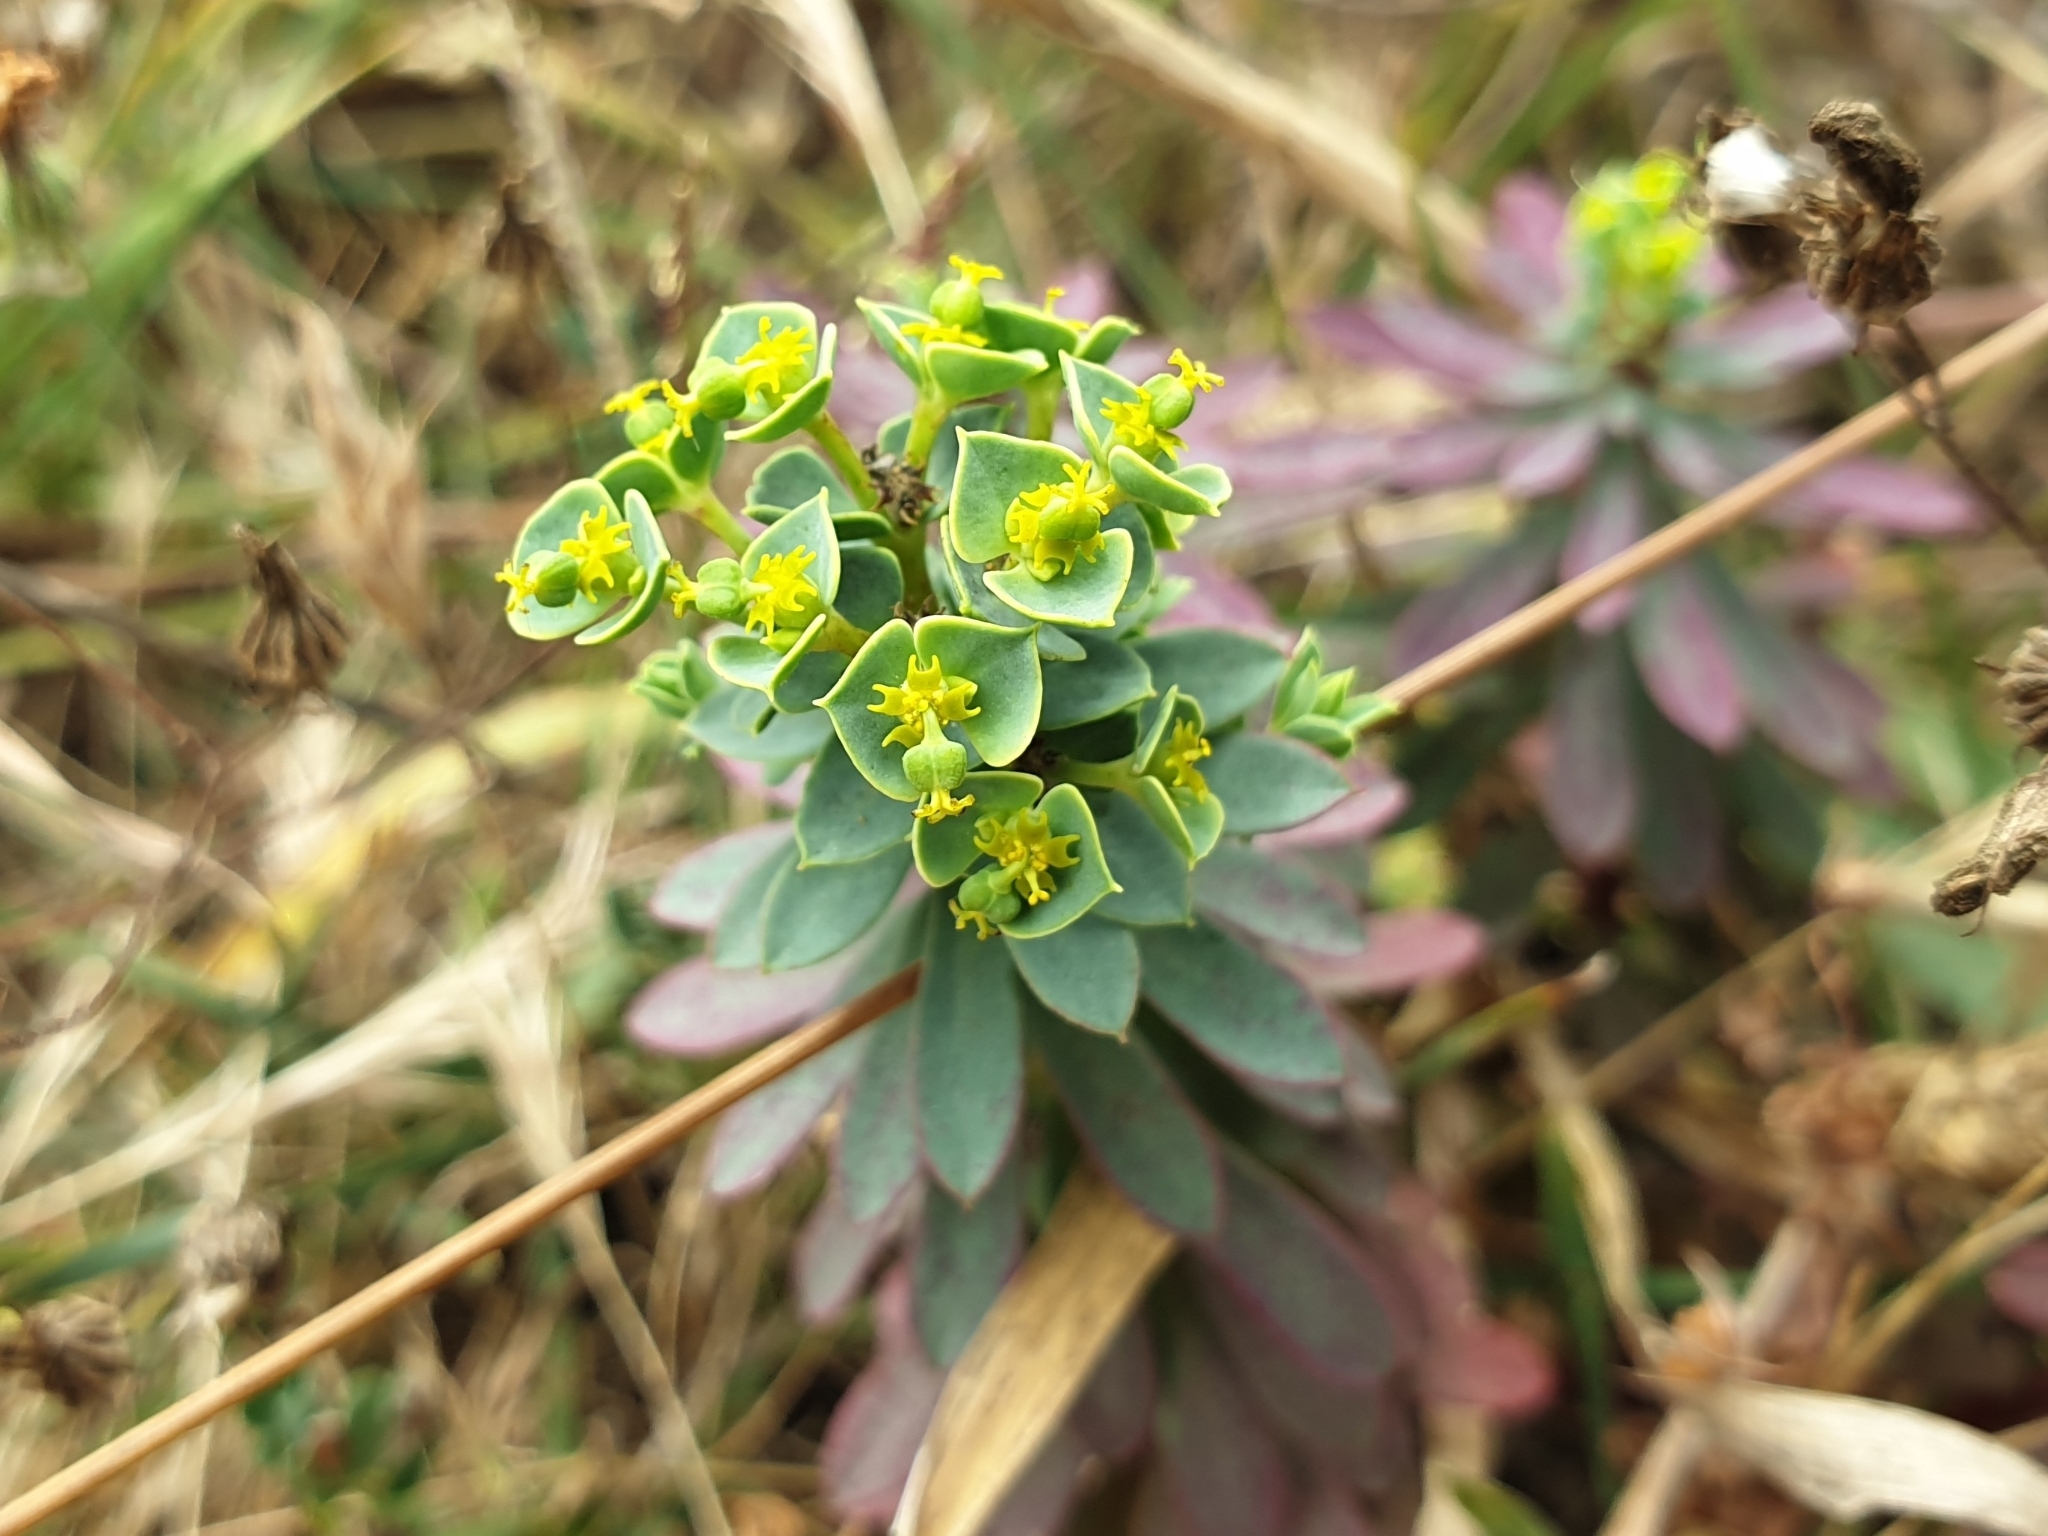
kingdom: Plantae
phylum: Tracheophyta
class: Magnoliopsida
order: Malpighiales
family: Euphorbiaceae
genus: Euphorbia
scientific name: Euphorbia portlandica
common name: Portland spurge
